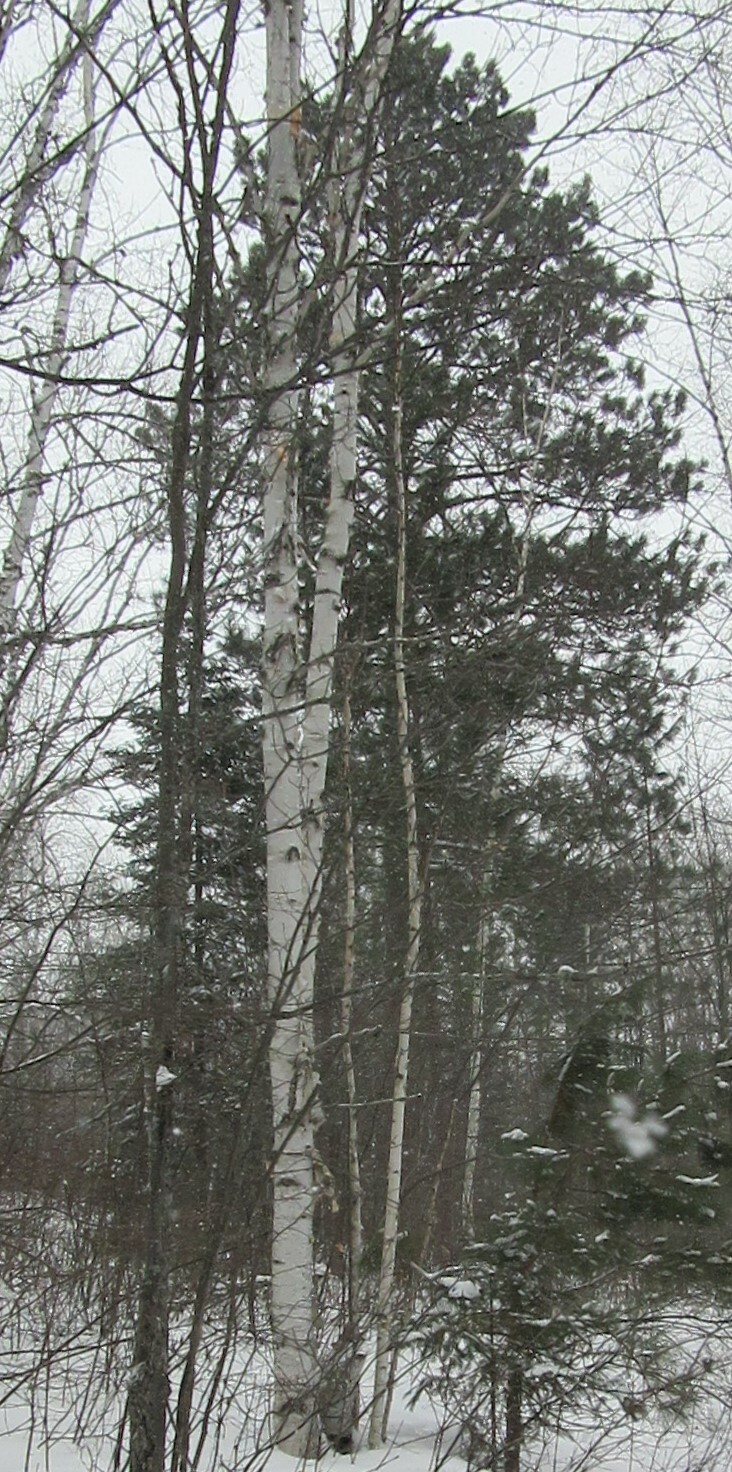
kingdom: Plantae
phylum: Tracheophyta
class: Pinopsida
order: Pinales
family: Pinaceae
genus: Pinus
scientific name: Pinus resinosa
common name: Norway pine
